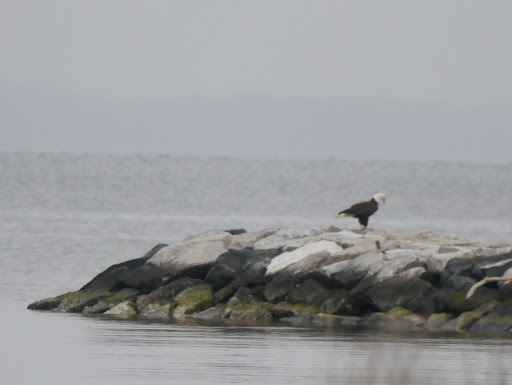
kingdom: Animalia
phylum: Chordata
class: Aves
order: Accipitriformes
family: Accipitridae
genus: Haliaeetus
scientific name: Haliaeetus leucocephalus
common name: Bald eagle
